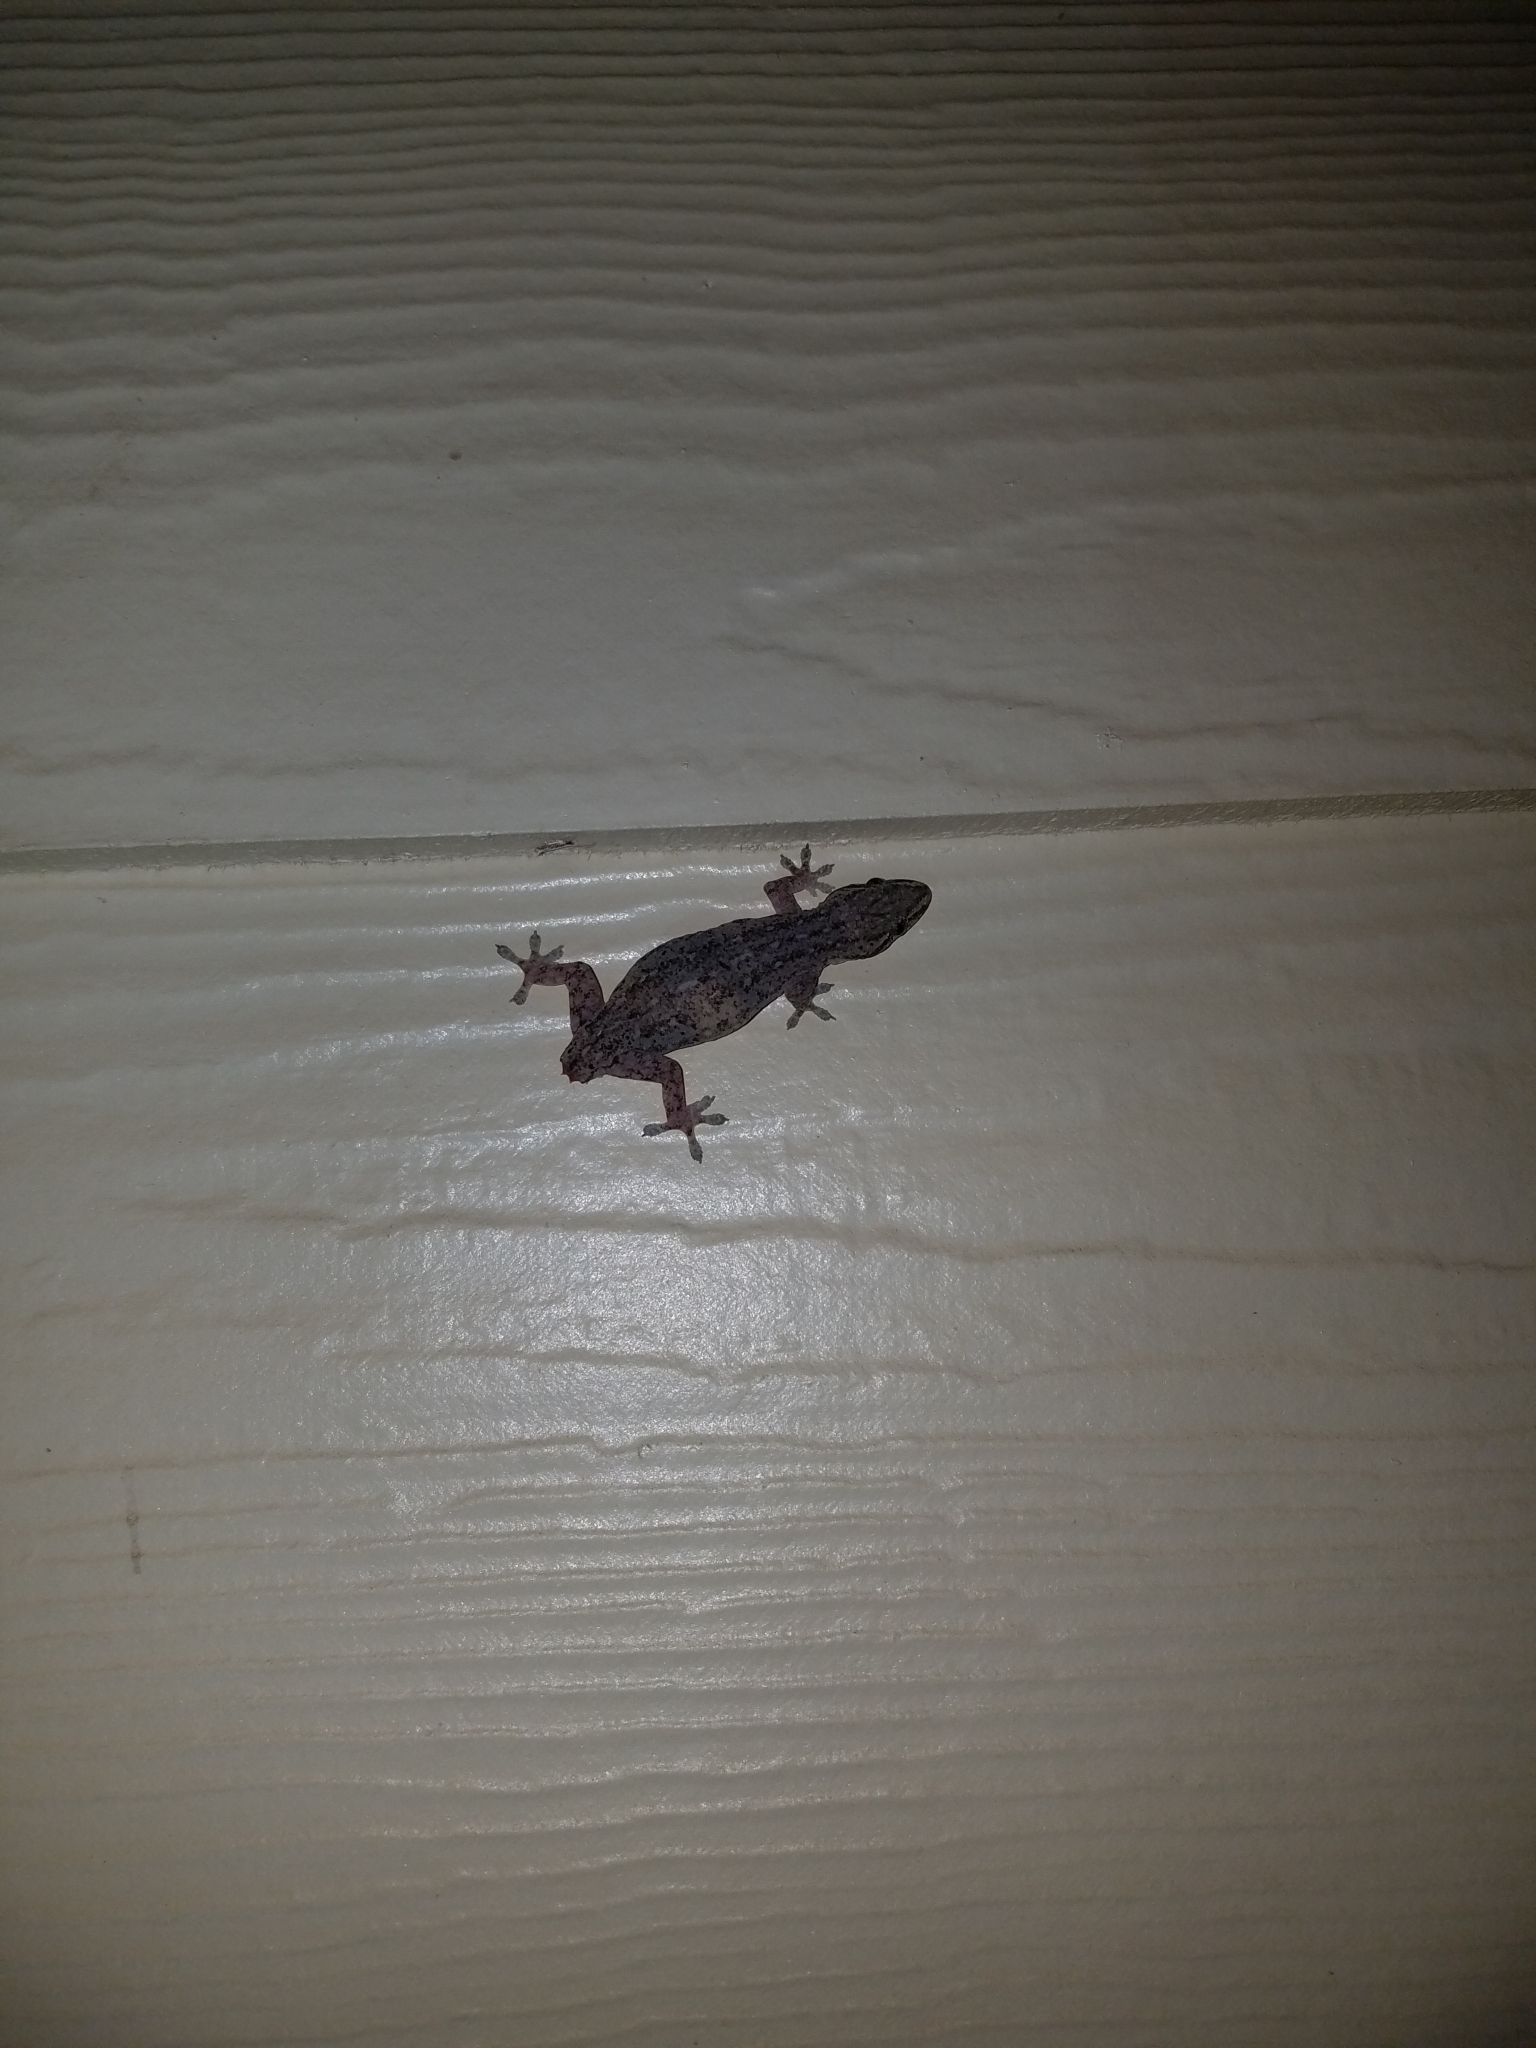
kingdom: Animalia
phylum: Chordata
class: Squamata
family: Gekkonidae
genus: Hemidactylus
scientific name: Hemidactylus frenatus
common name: Common house gecko
